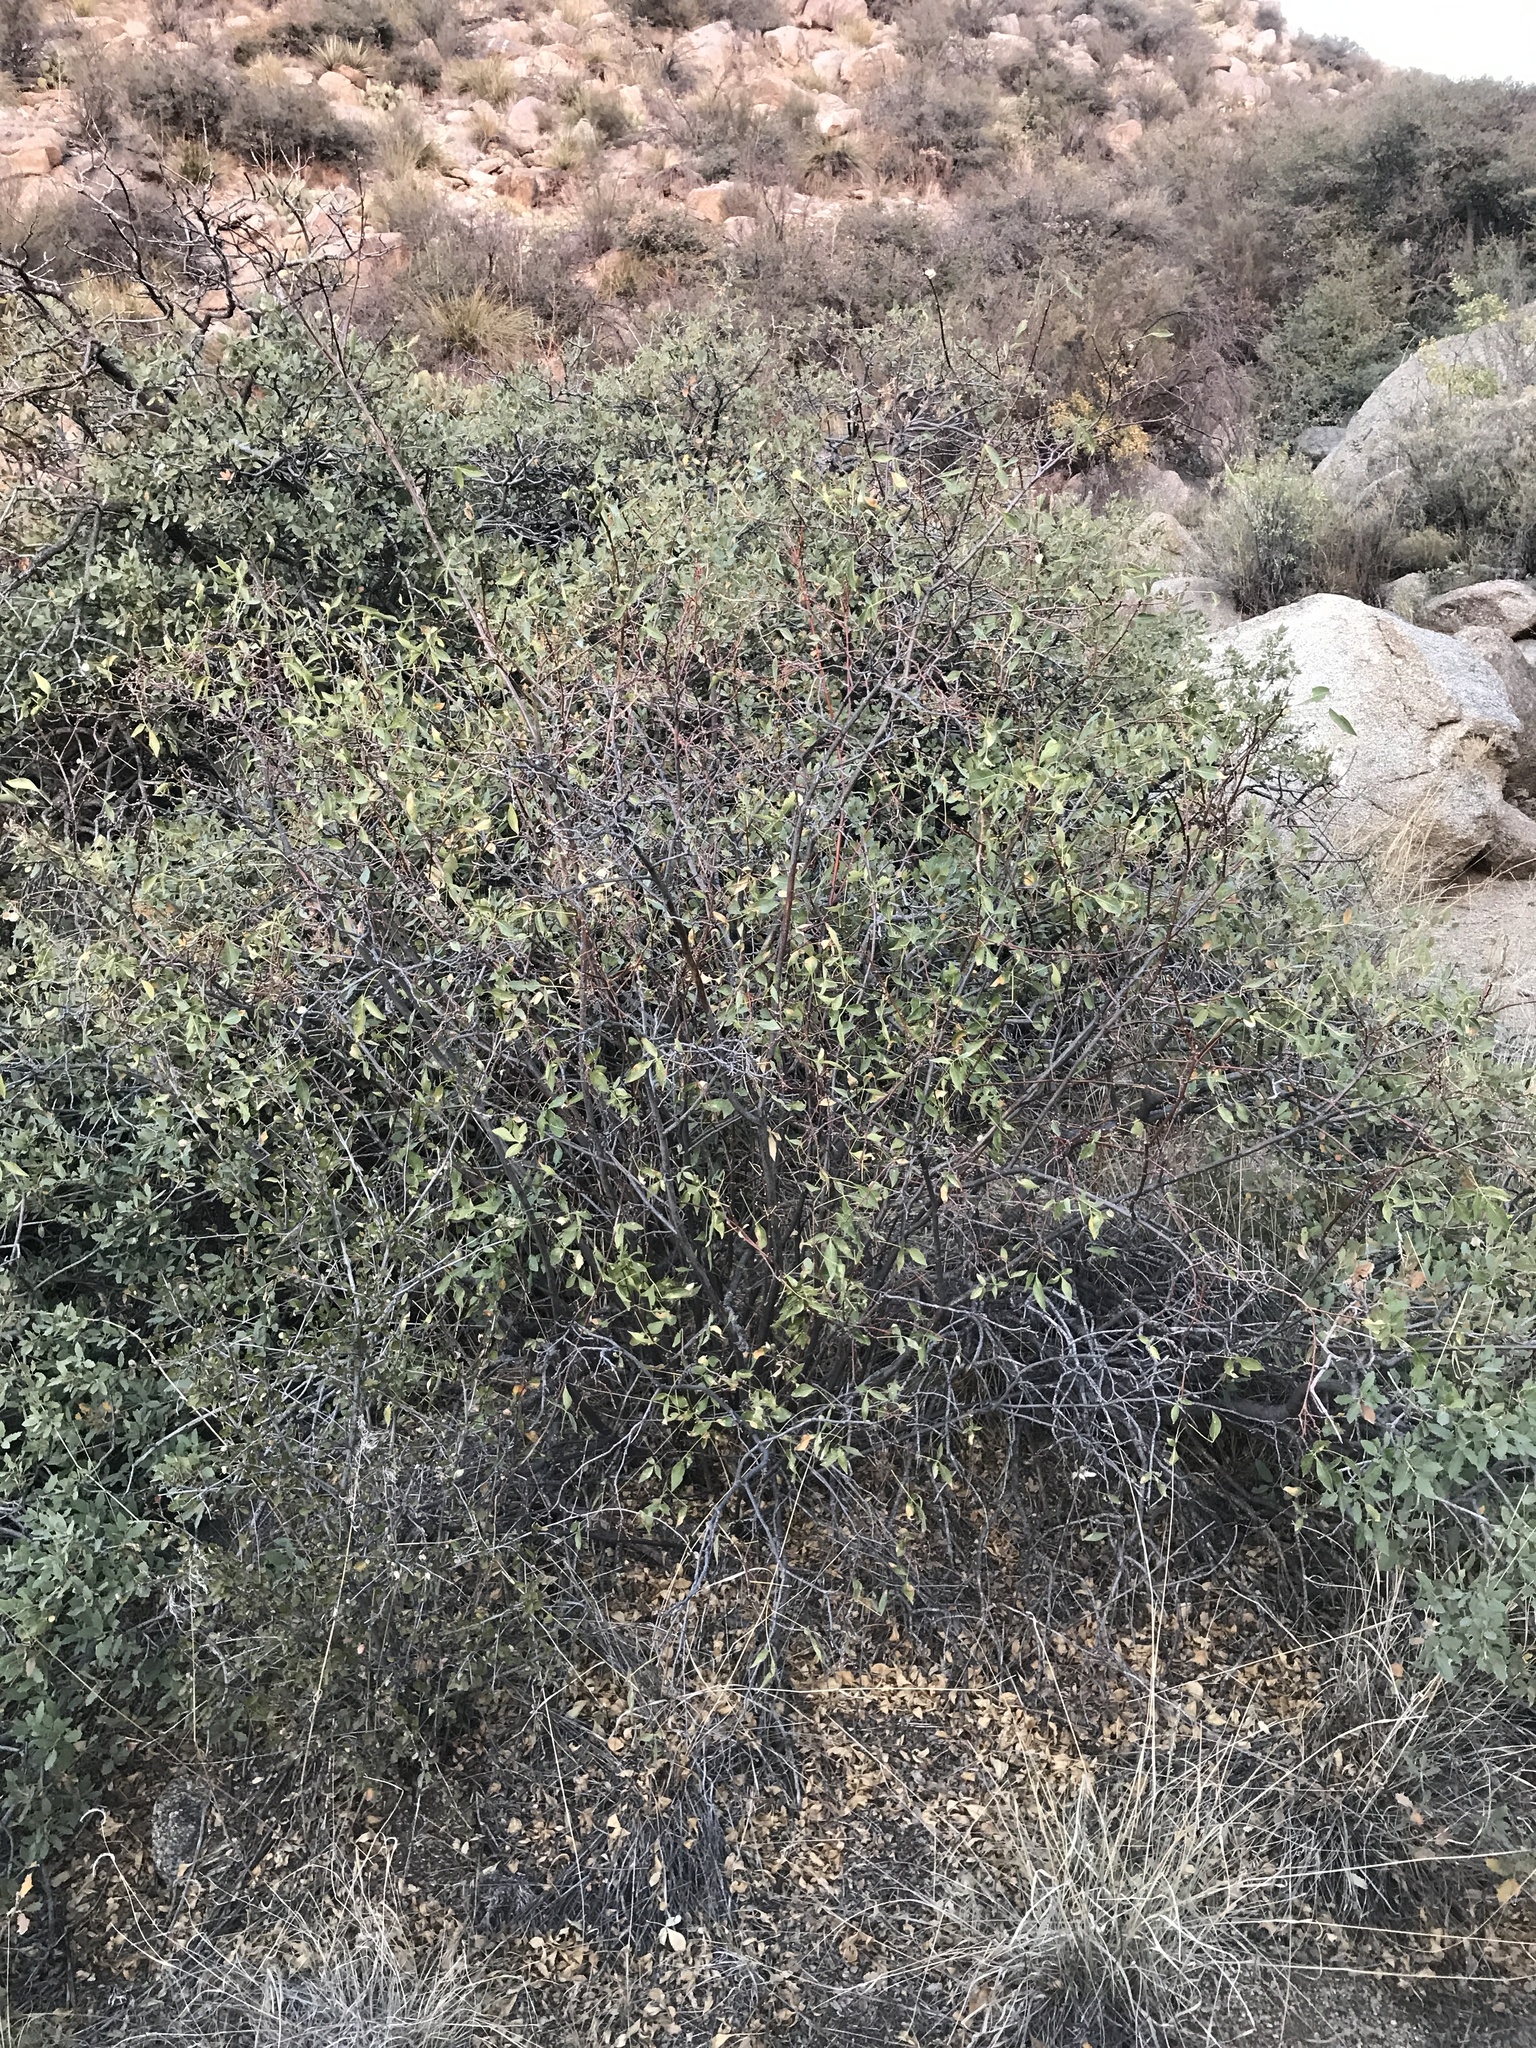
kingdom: Plantae
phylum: Tracheophyta
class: Magnoliopsida
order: Sapindales
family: Rutaceae
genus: Ptelea
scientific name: Ptelea trifoliata
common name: Common hop-tree
